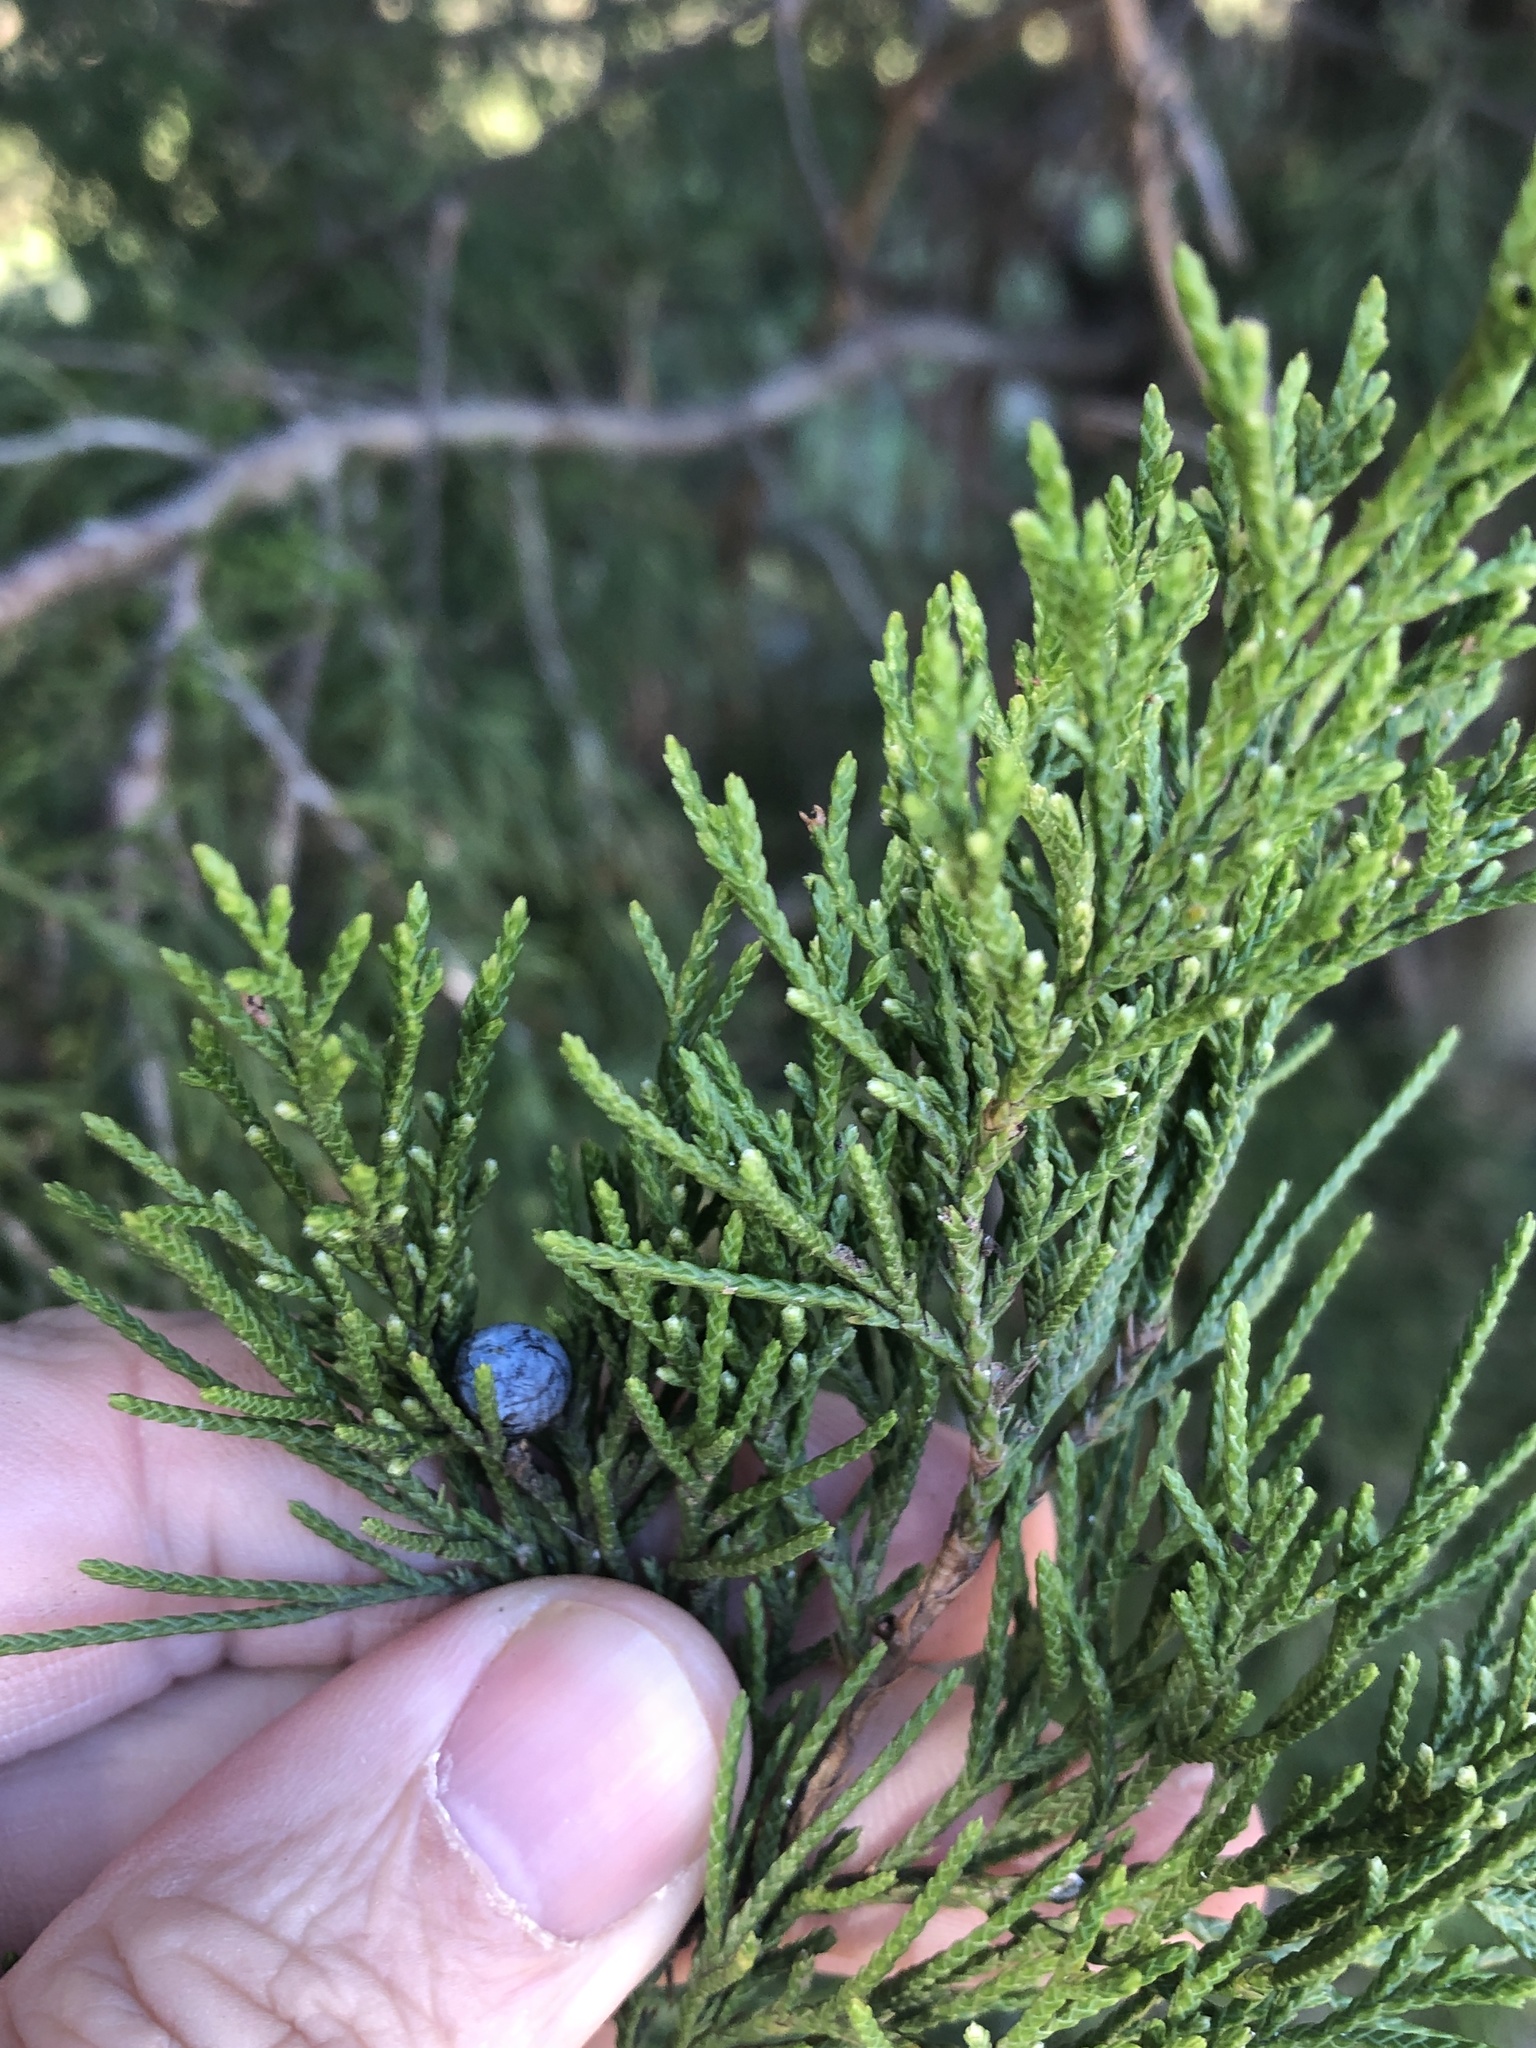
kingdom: Plantae
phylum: Tracheophyta
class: Pinopsida
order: Pinales
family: Cupressaceae
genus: Juniperus
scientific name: Juniperus virginiana
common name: Red juniper
